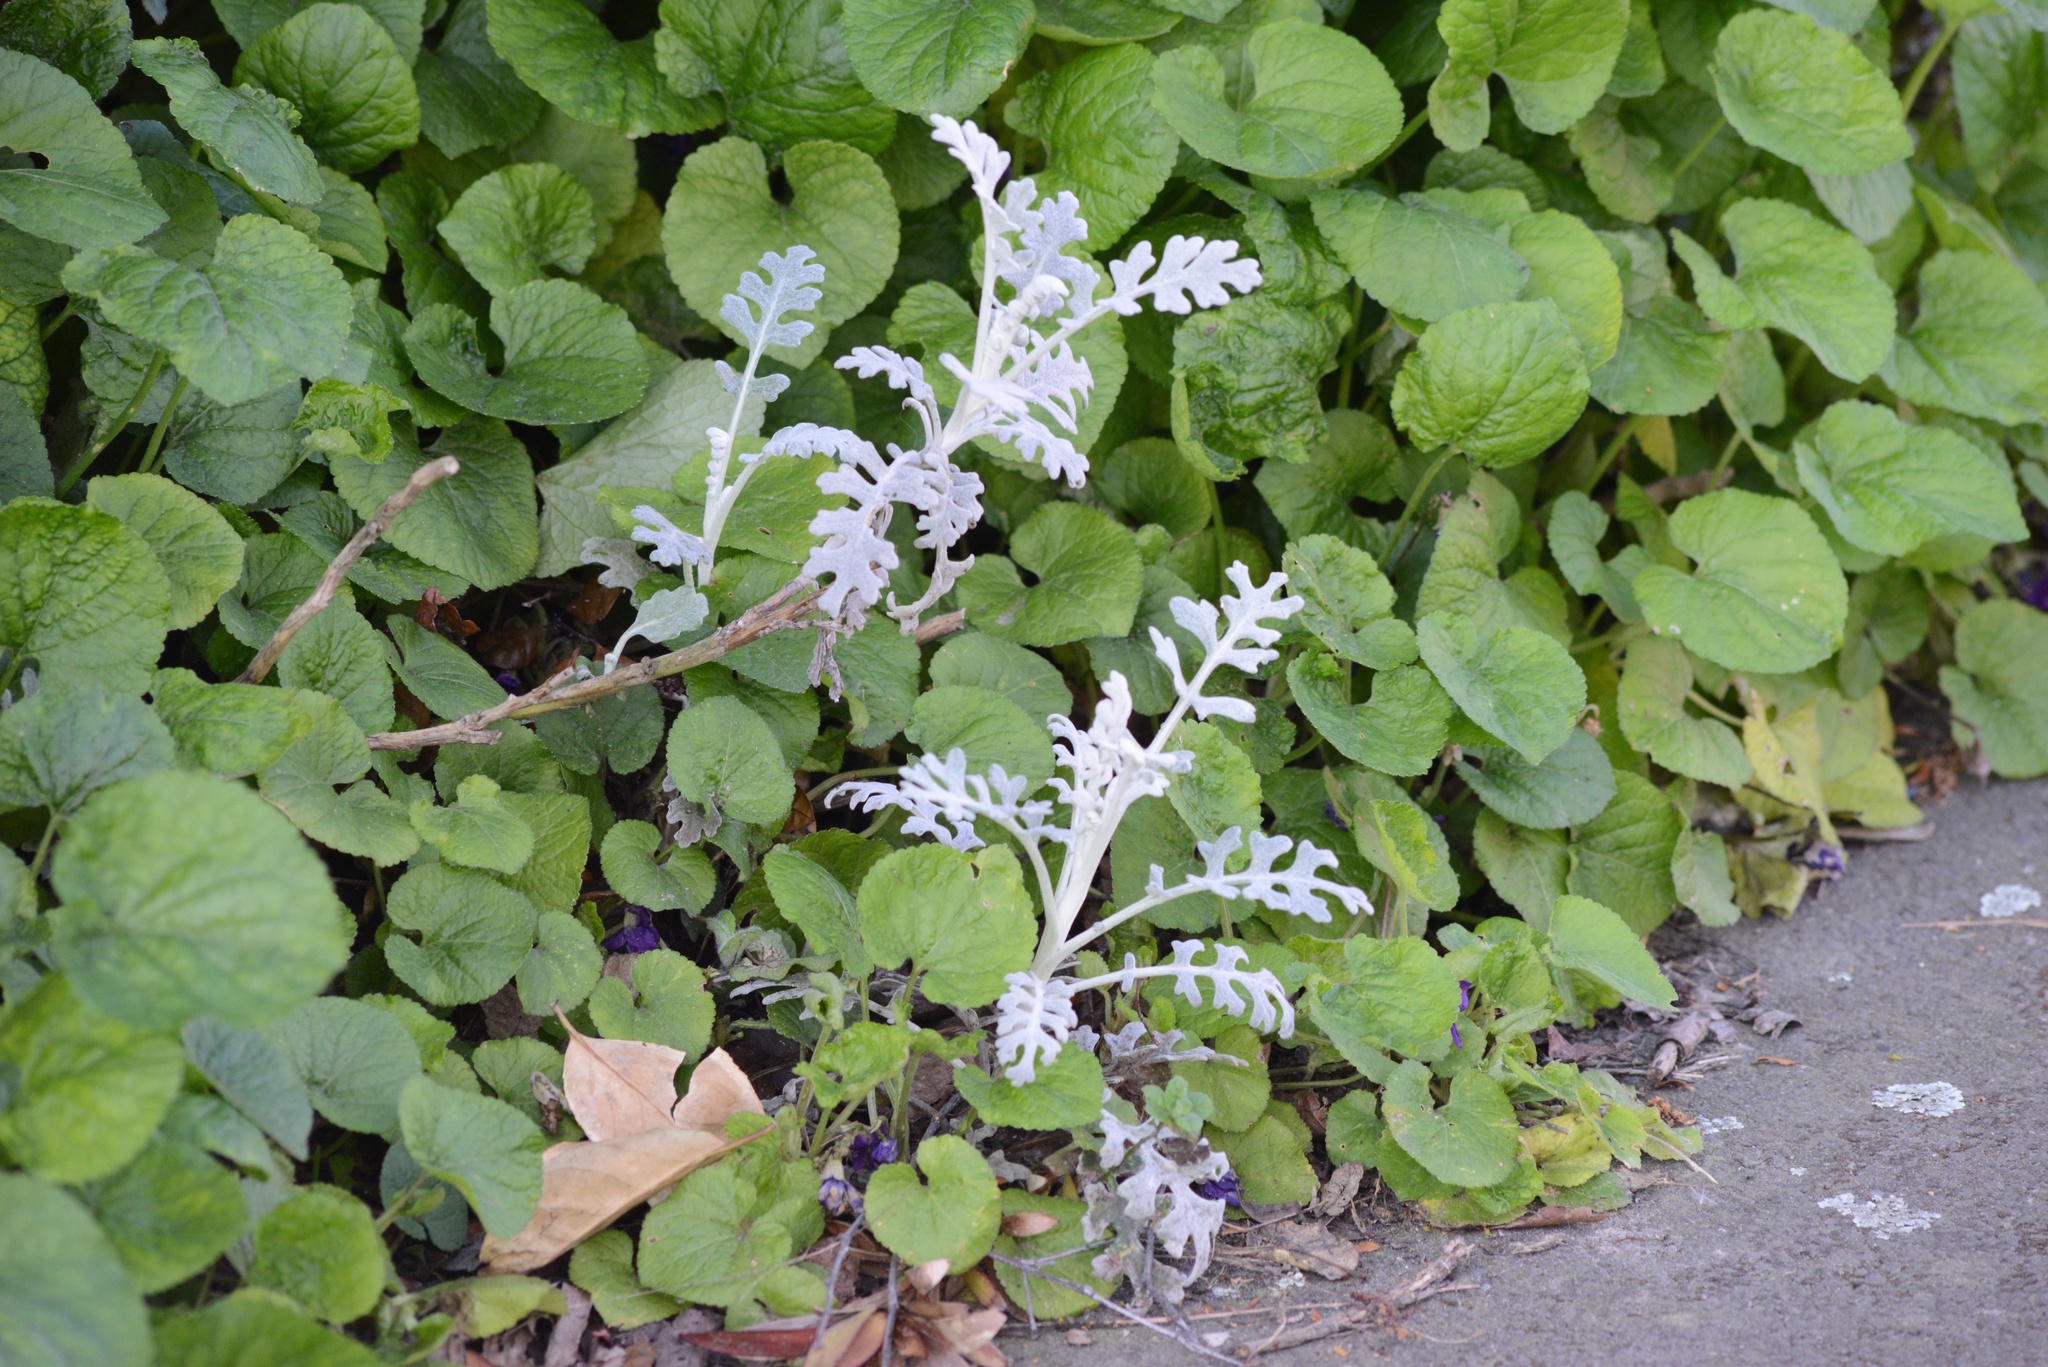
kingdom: Plantae
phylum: Tracheophyta
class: Magnoliopsida
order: Asterales
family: Asteraceae
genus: Jacobaea
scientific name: Jacobaea maritima
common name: Silver ragwort
